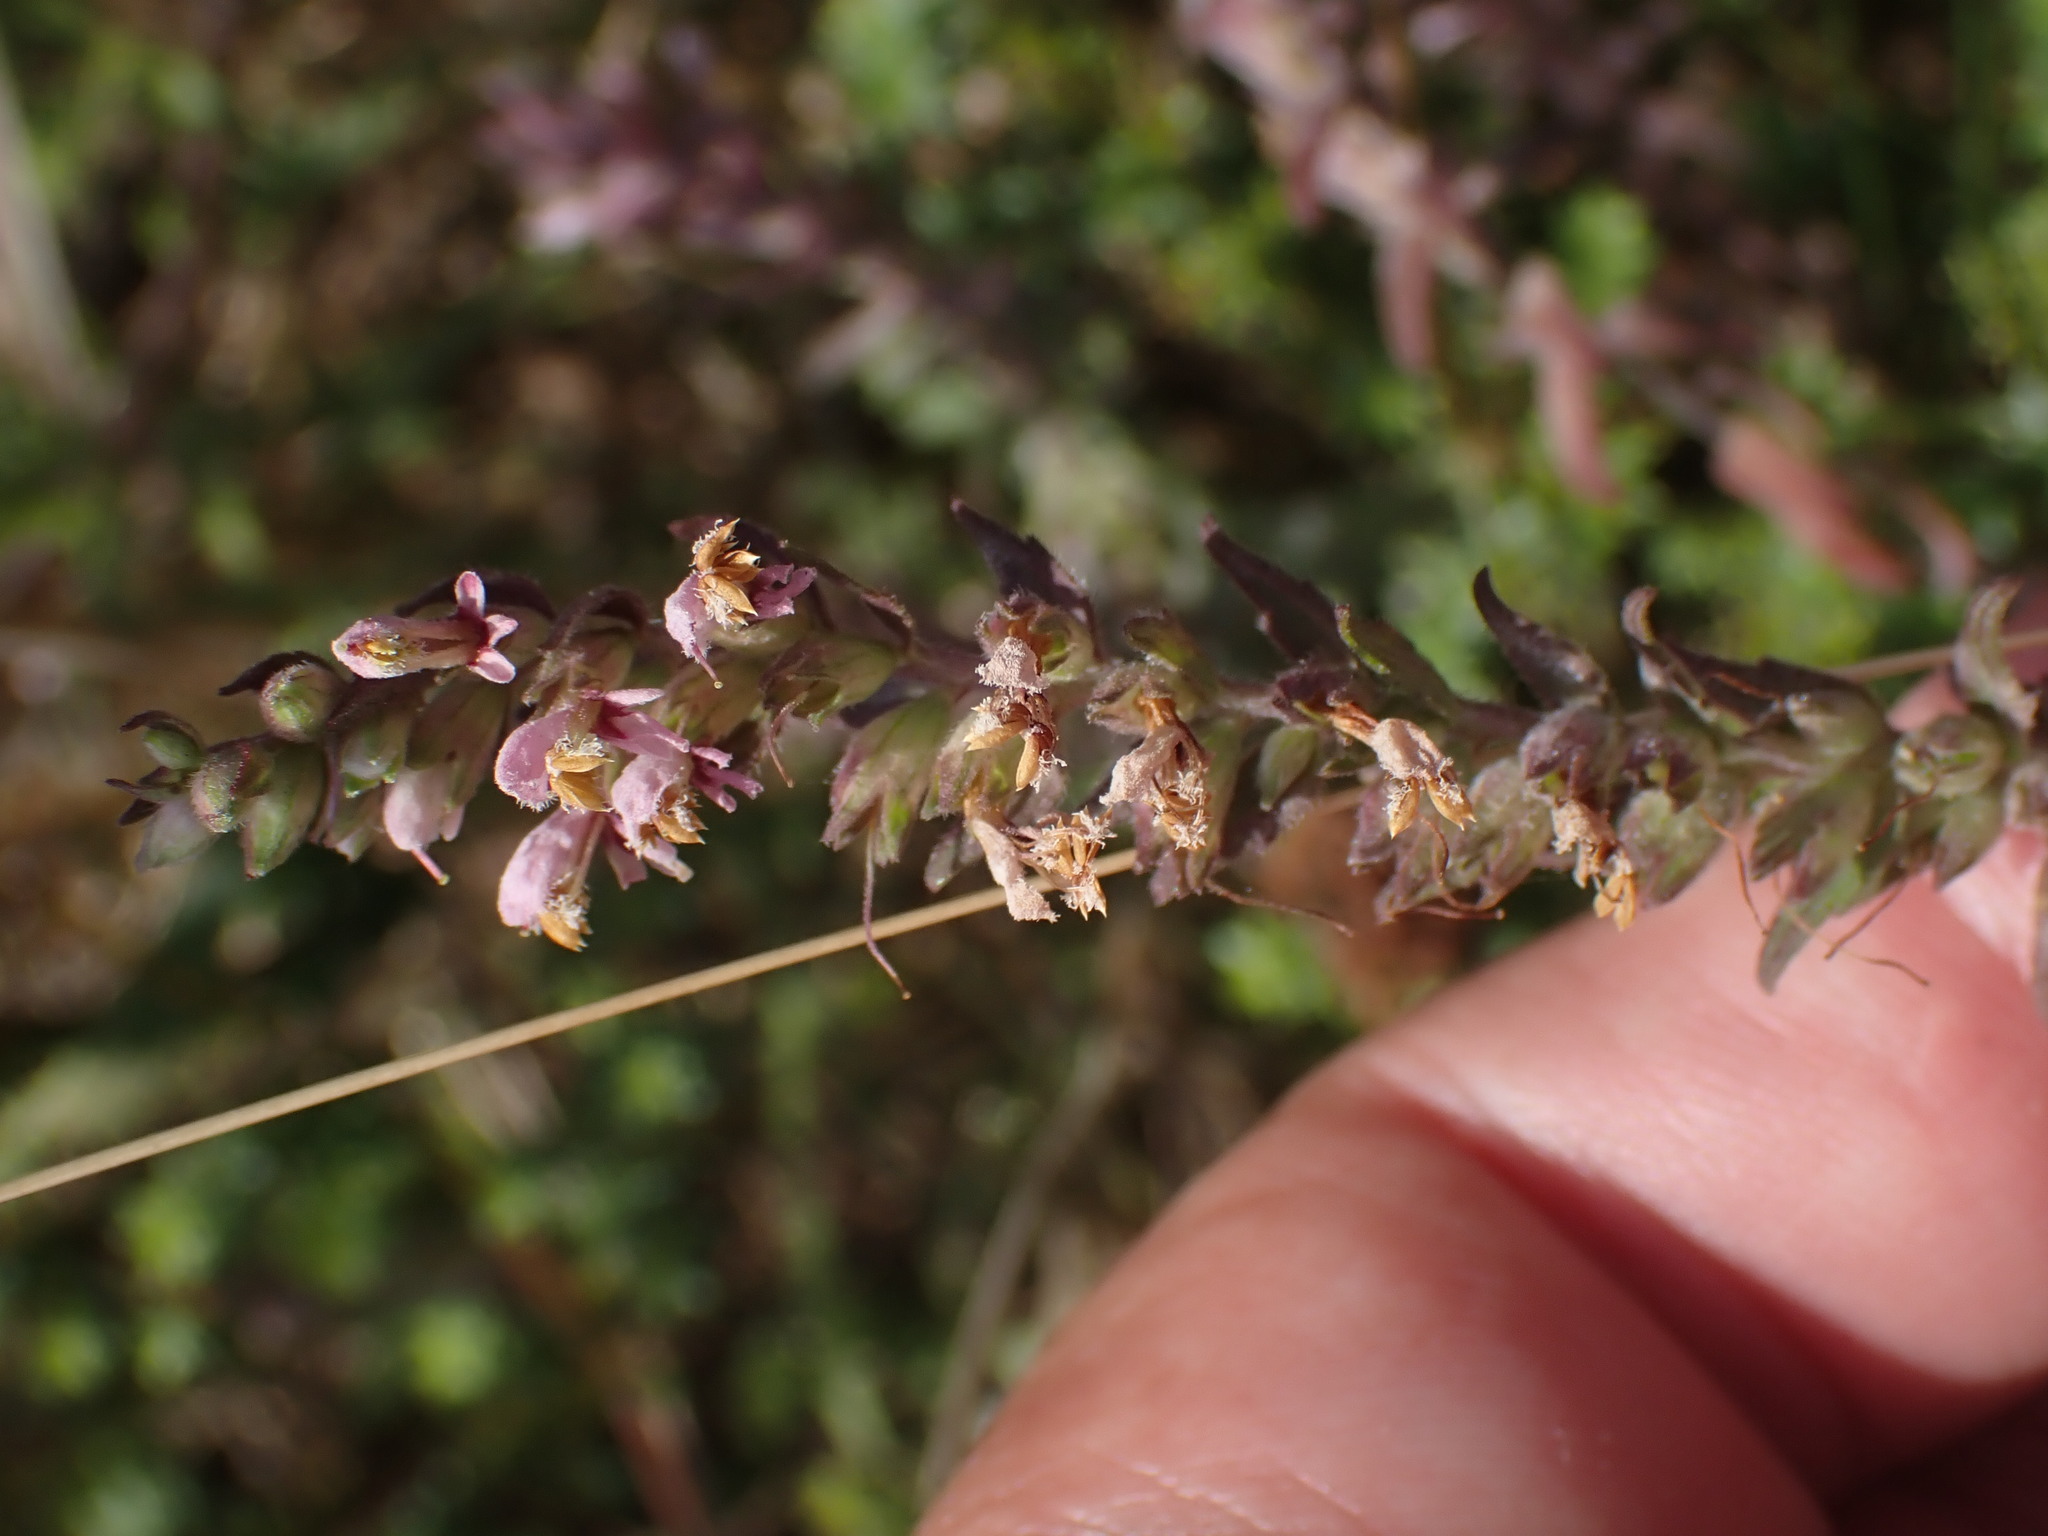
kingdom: Plantae
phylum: Tracheophyta
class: Magnoliopsida
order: Lamiales
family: Orobanchaceae
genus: Odontites
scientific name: Odontites vulgaris
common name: Broomrape
